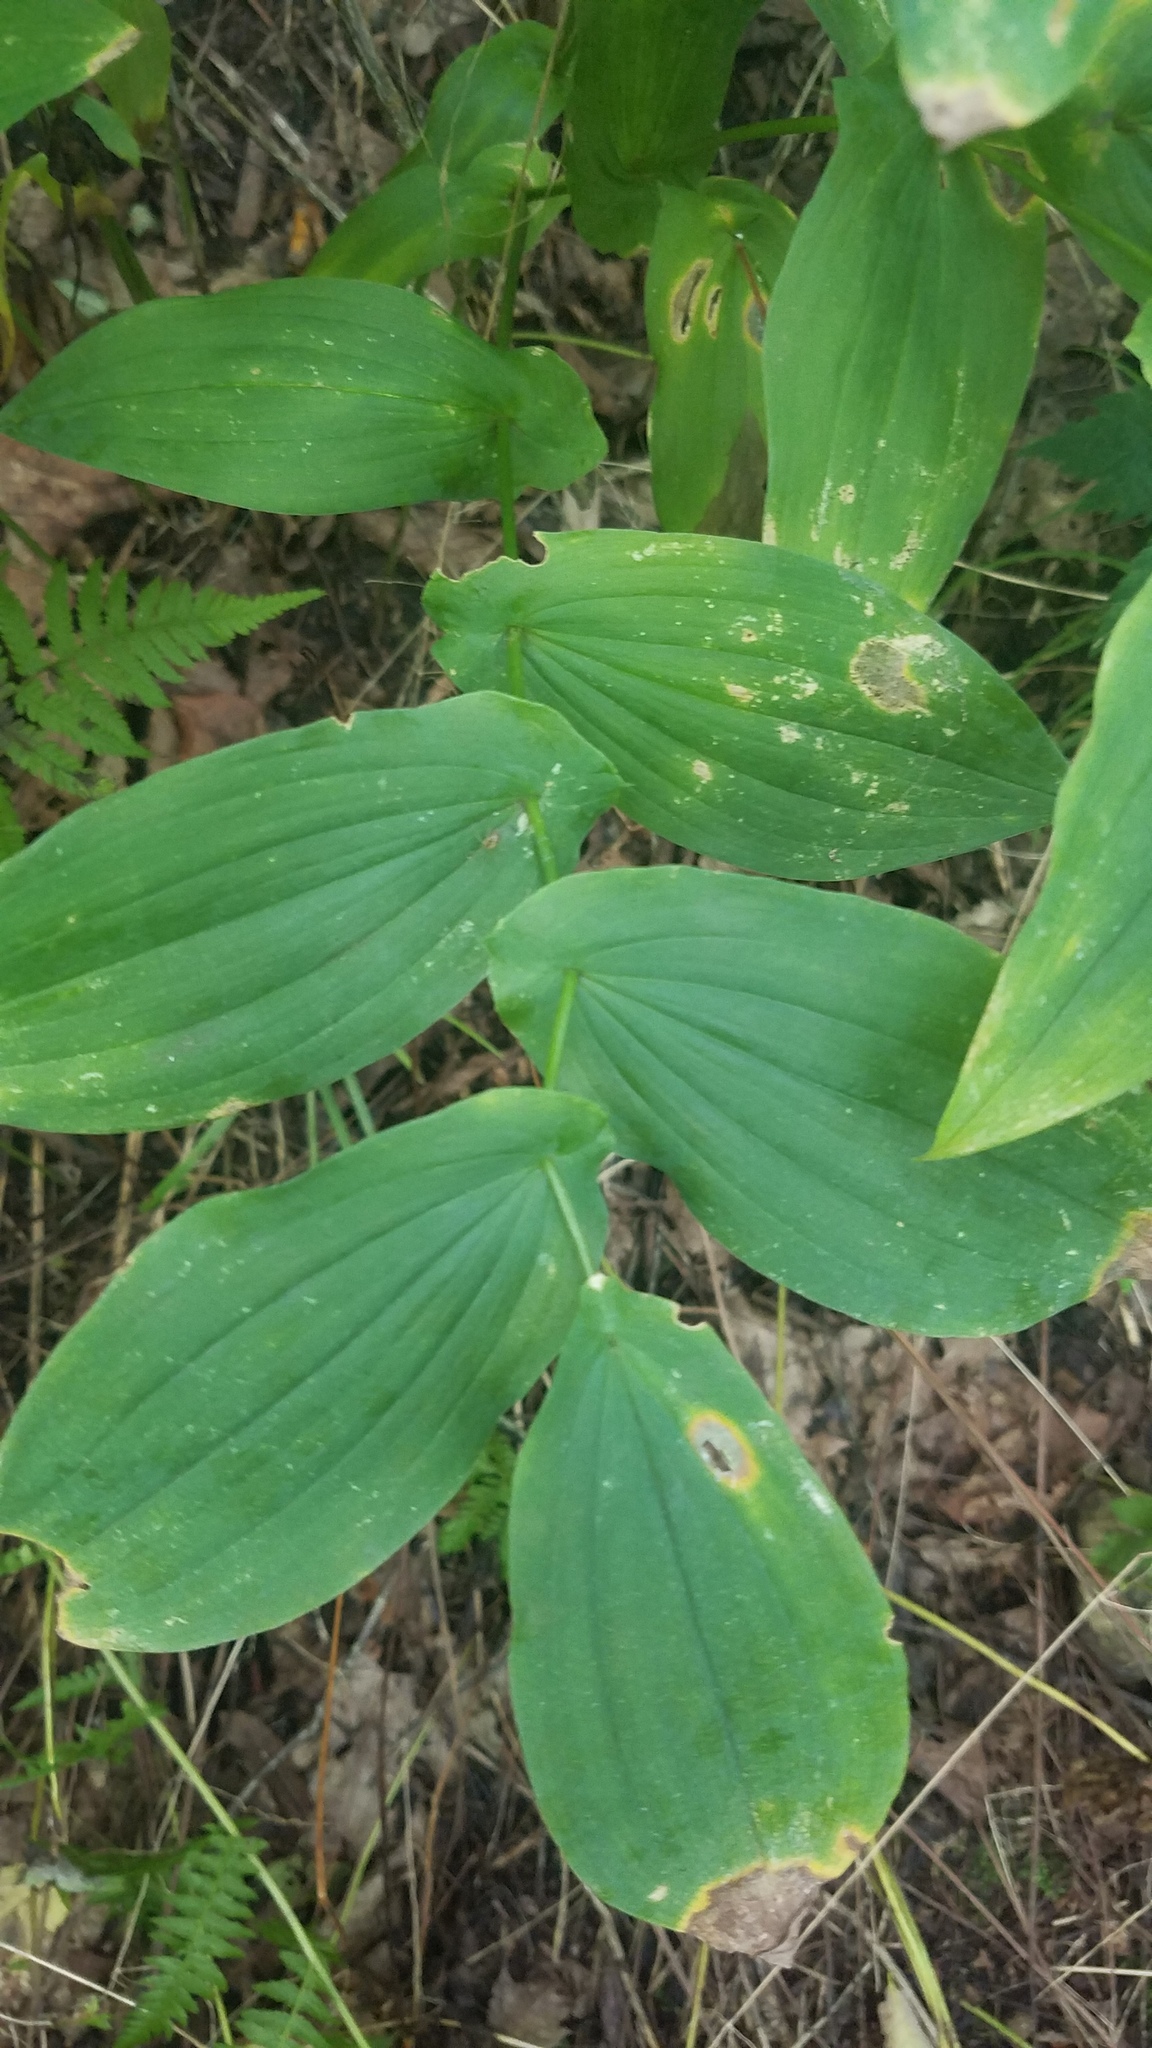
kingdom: Plantae
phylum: Tracheophyta
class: Liliopsida
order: Liliales
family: Colchicaceae
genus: Uvularia
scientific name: Uvularia grandiflora
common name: Bellwort
